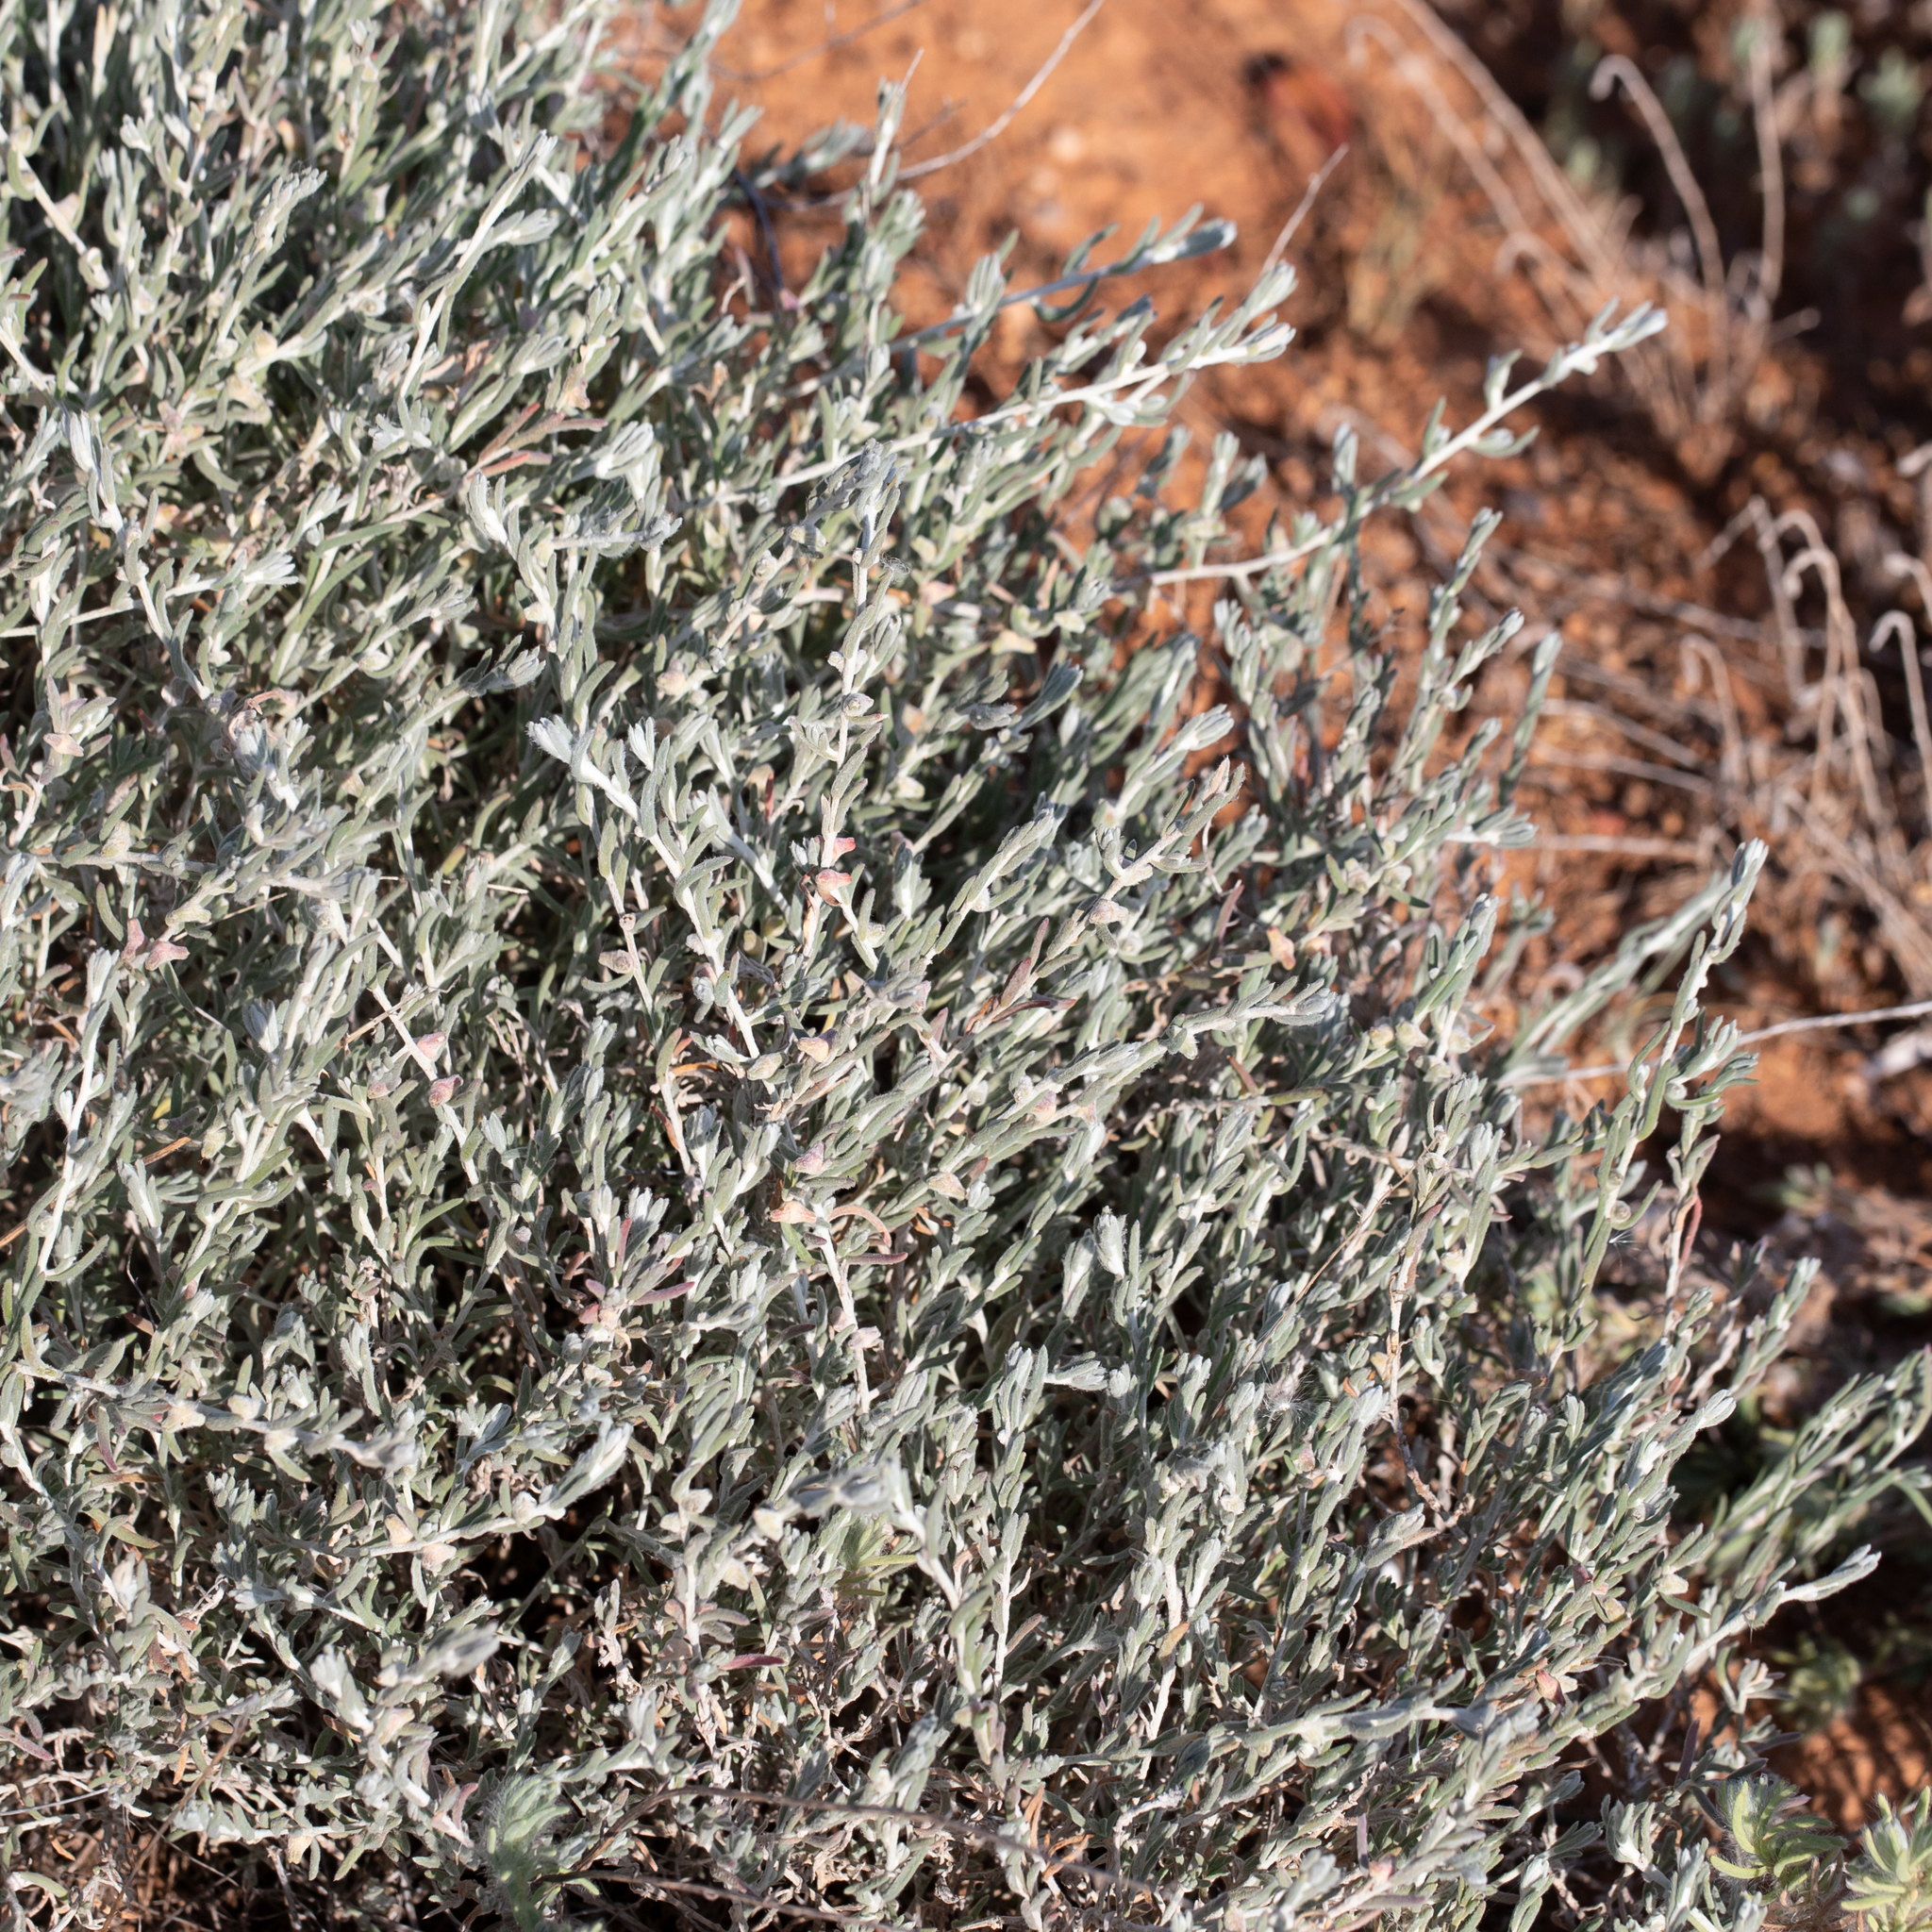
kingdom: Plantae
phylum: Tracheophyta
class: Magnoliopsida
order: Caryophyllales
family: Amaranthaceae
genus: Dissocarpus
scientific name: Dissocarpus biflorus
